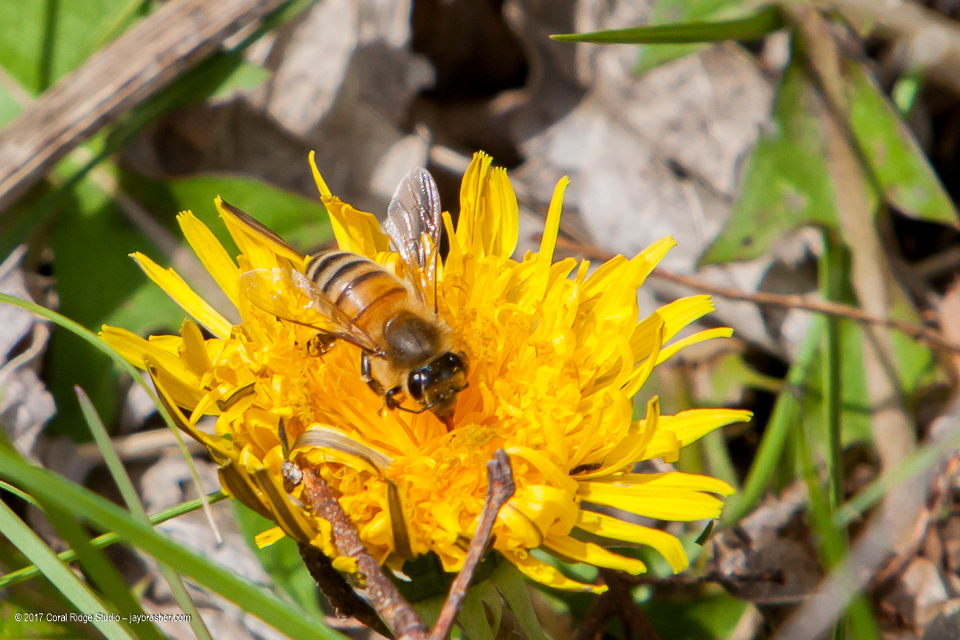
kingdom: Animalia
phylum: Arthropoda
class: Insecta
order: Hymenoptera
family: Apidae
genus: Apis
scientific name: Apis mellifera
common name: Honey bee
